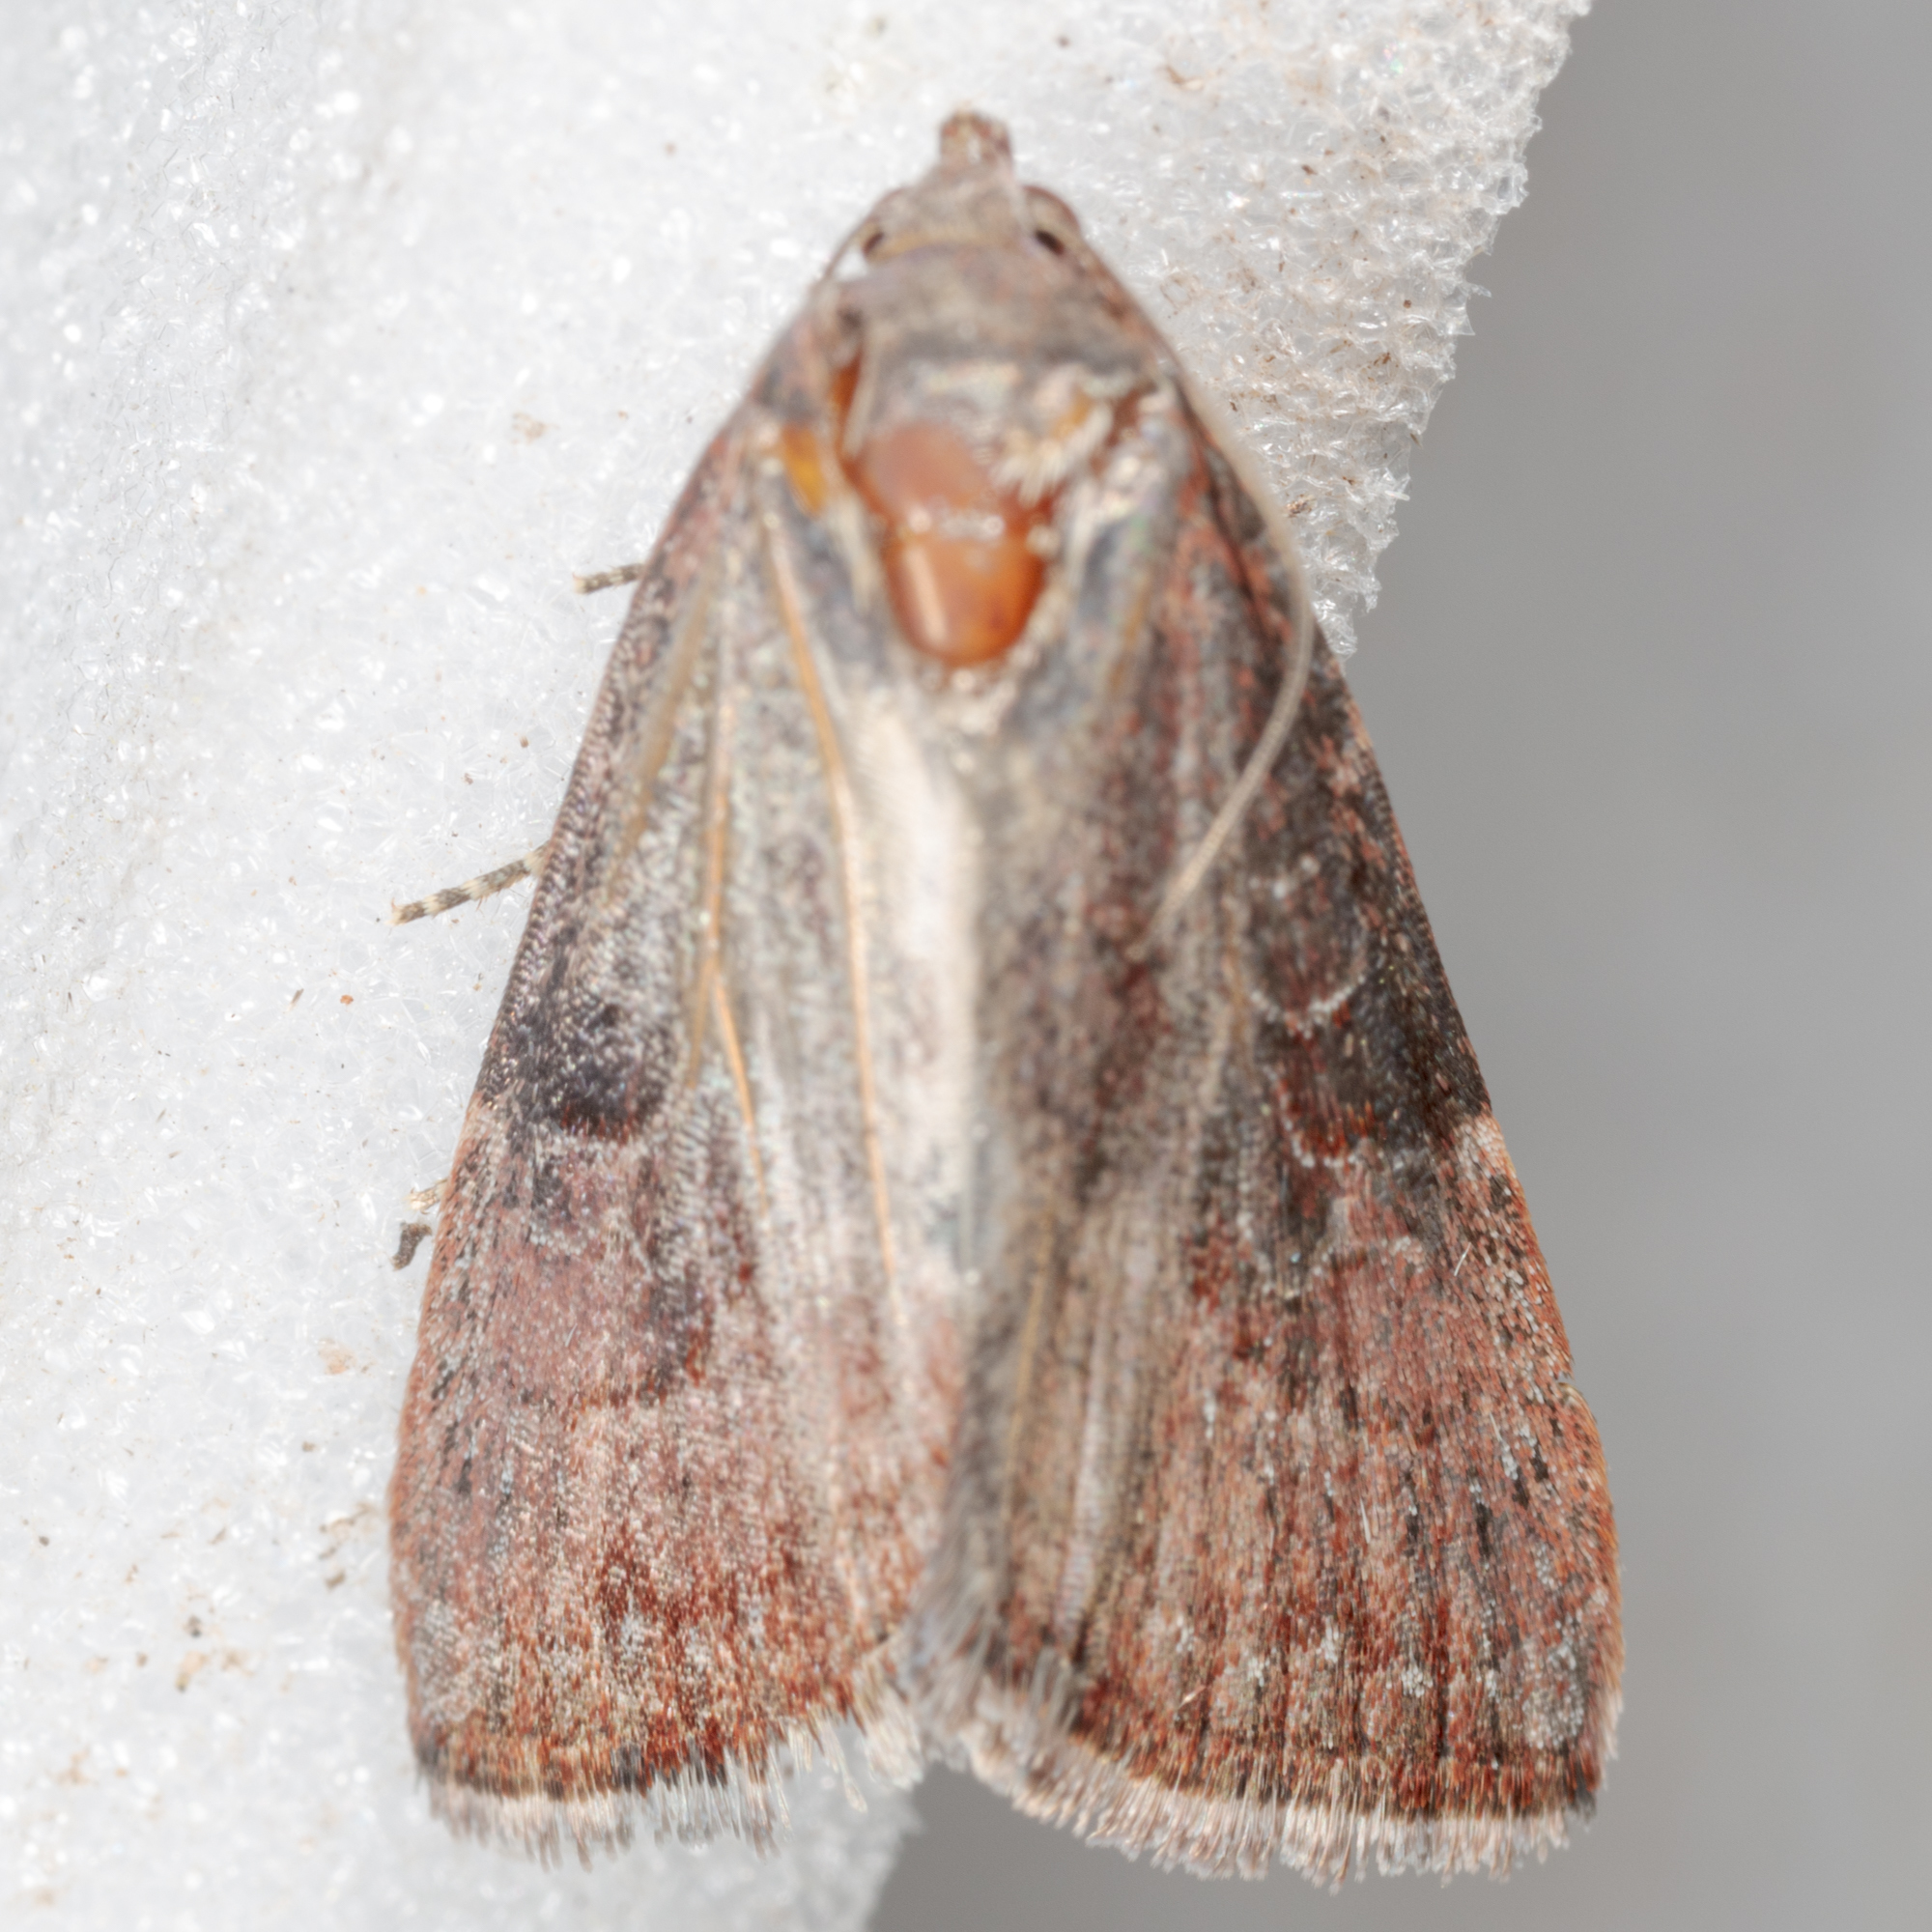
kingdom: Animalia
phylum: Arthropoda
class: Insecta
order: Lepidoptera
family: Noctuidae
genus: Galgula
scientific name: Galgula partita
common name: Wedgeling
